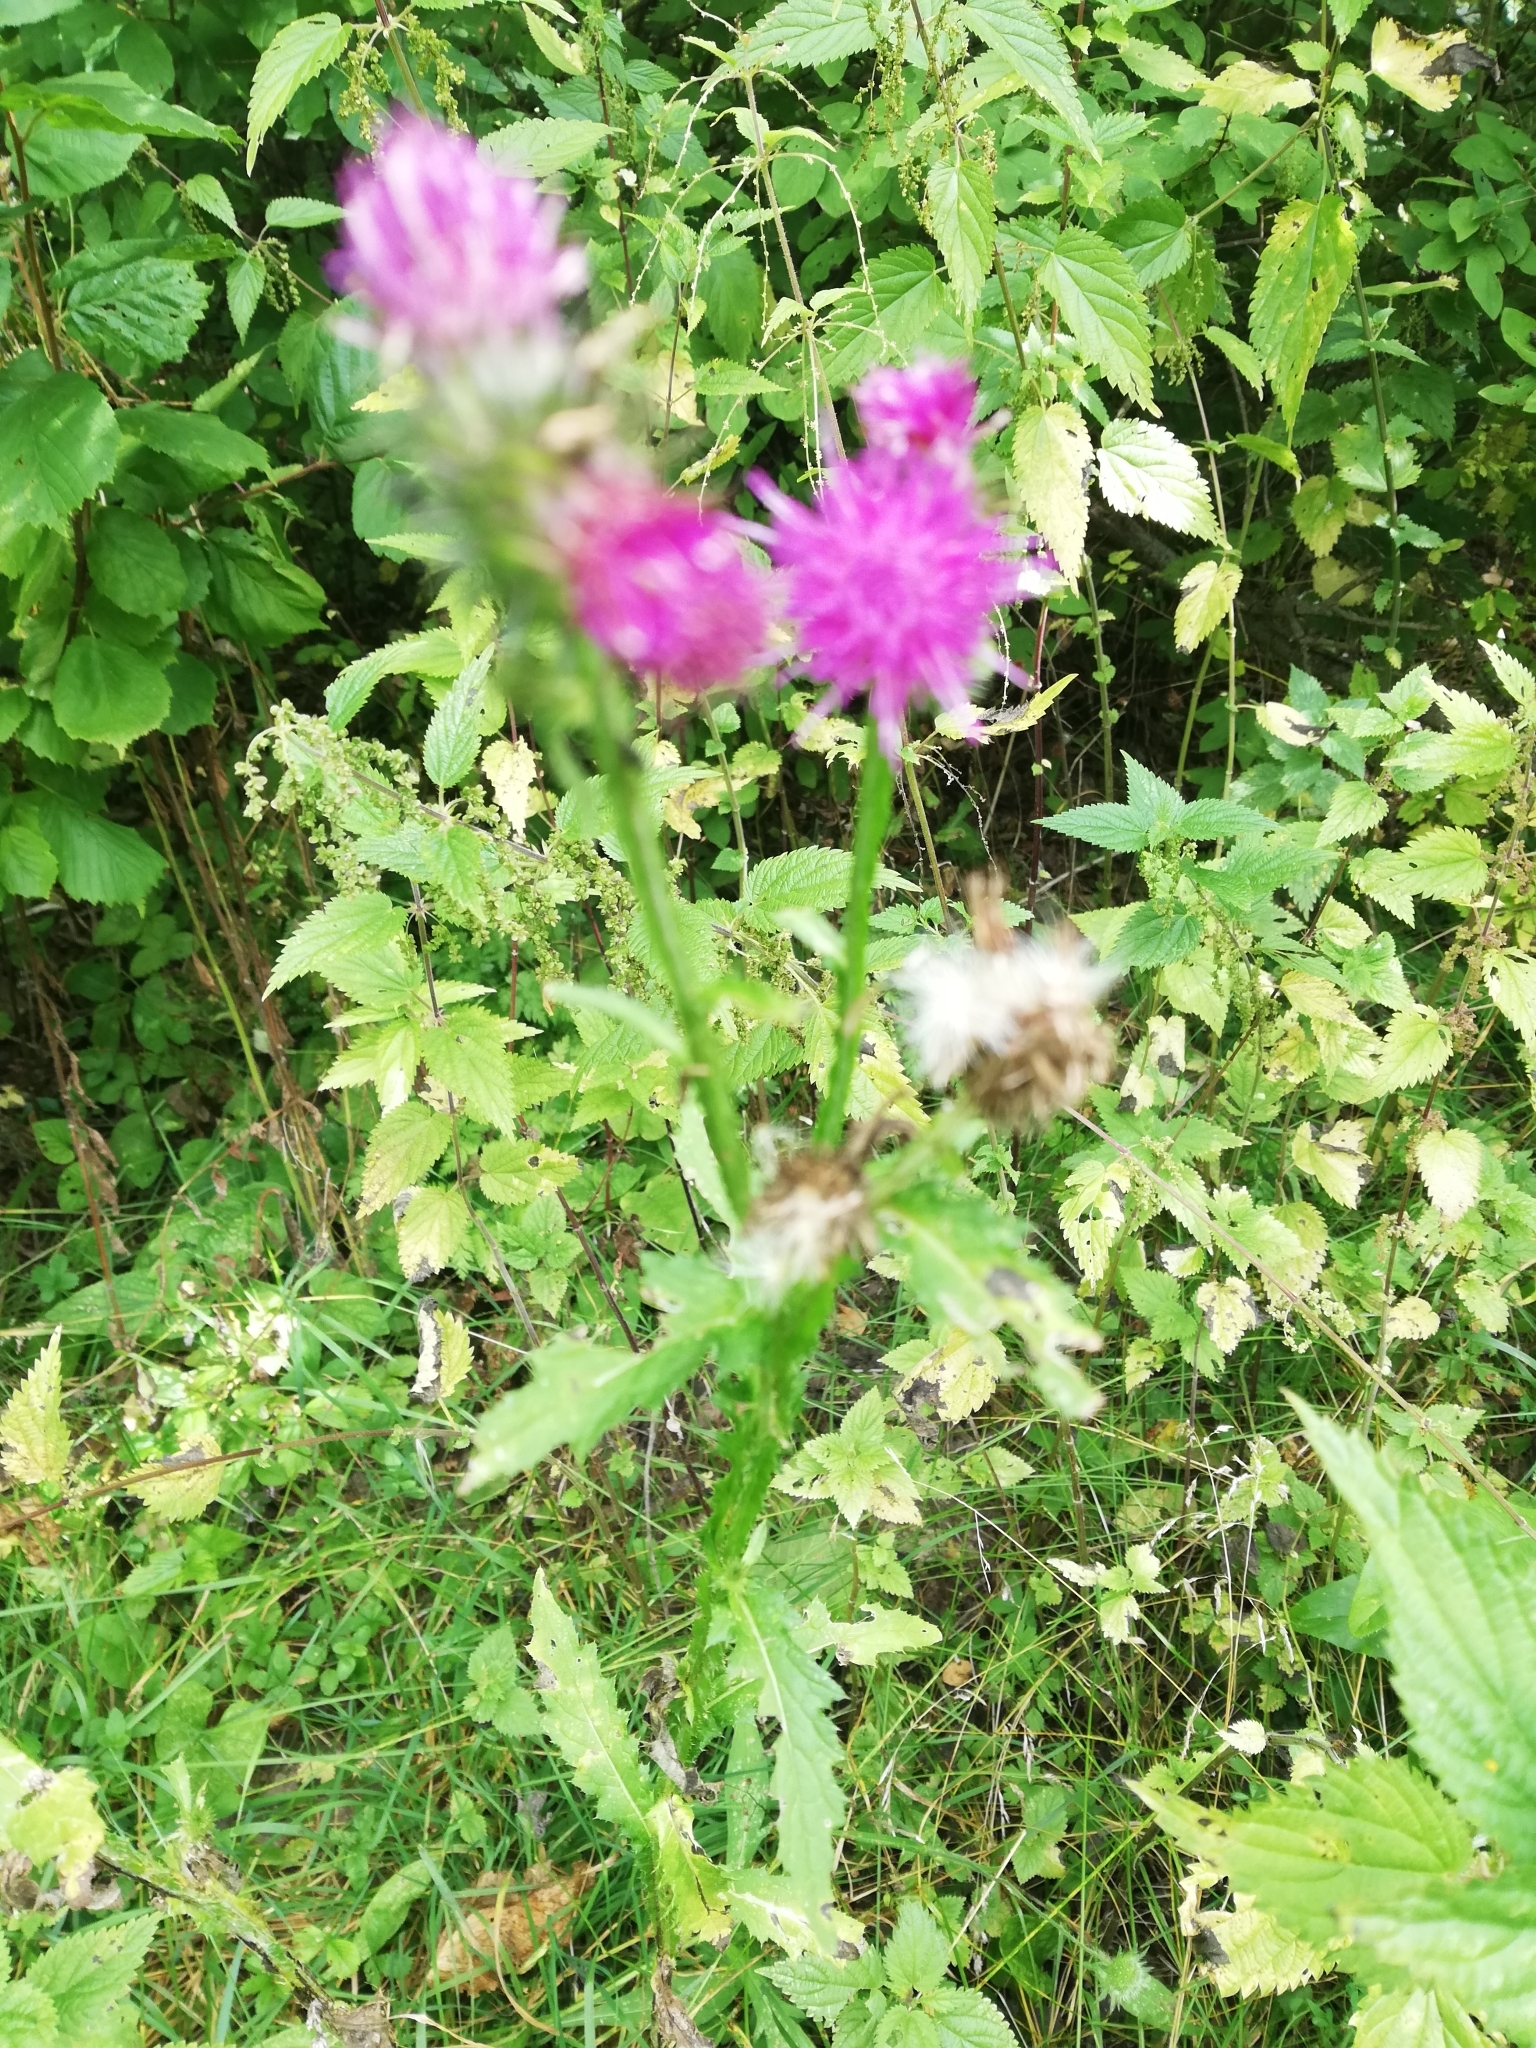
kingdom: Plantae
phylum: Tracheophyta
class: Magnoliopsida
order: Asterales
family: Asteraceae
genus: Carduus
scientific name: Carduus crispus
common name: Welted thistle
